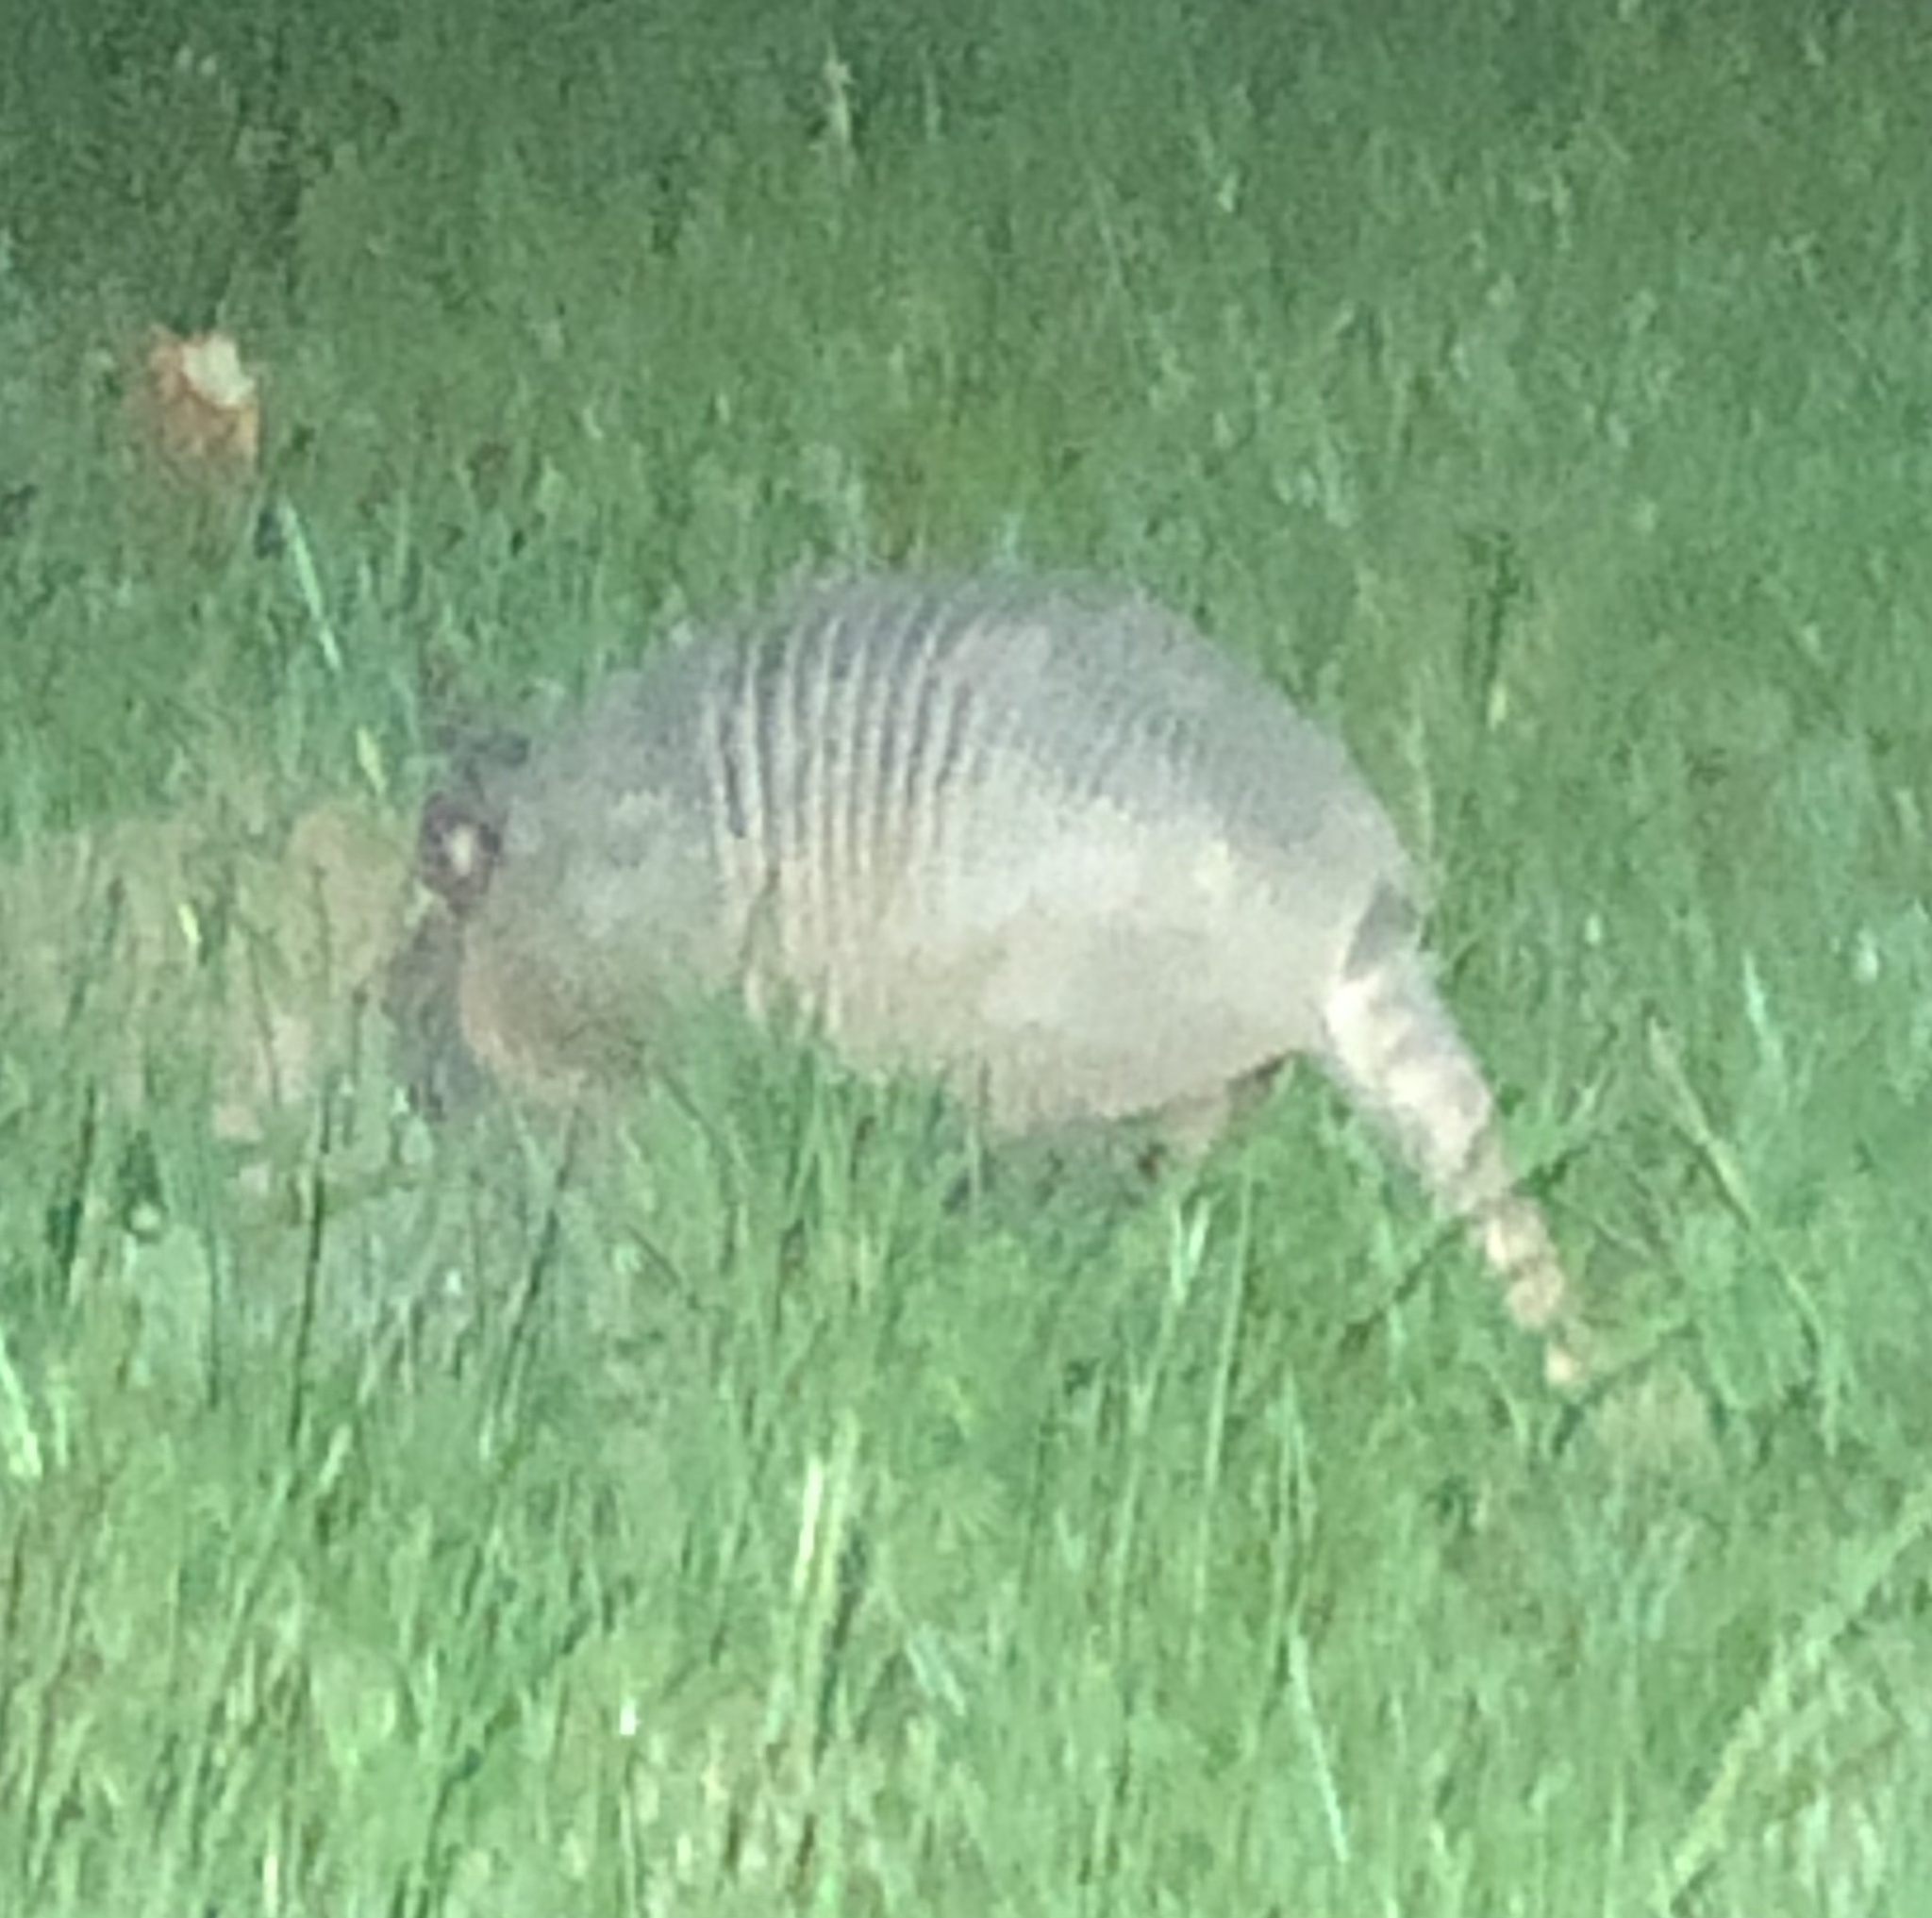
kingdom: Animalia
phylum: Chordata
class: Mammalia
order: Cingulata
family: Dasypodidae
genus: Dasypus
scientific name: Dasypus novemcinctus
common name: Nine-banded armadillo
